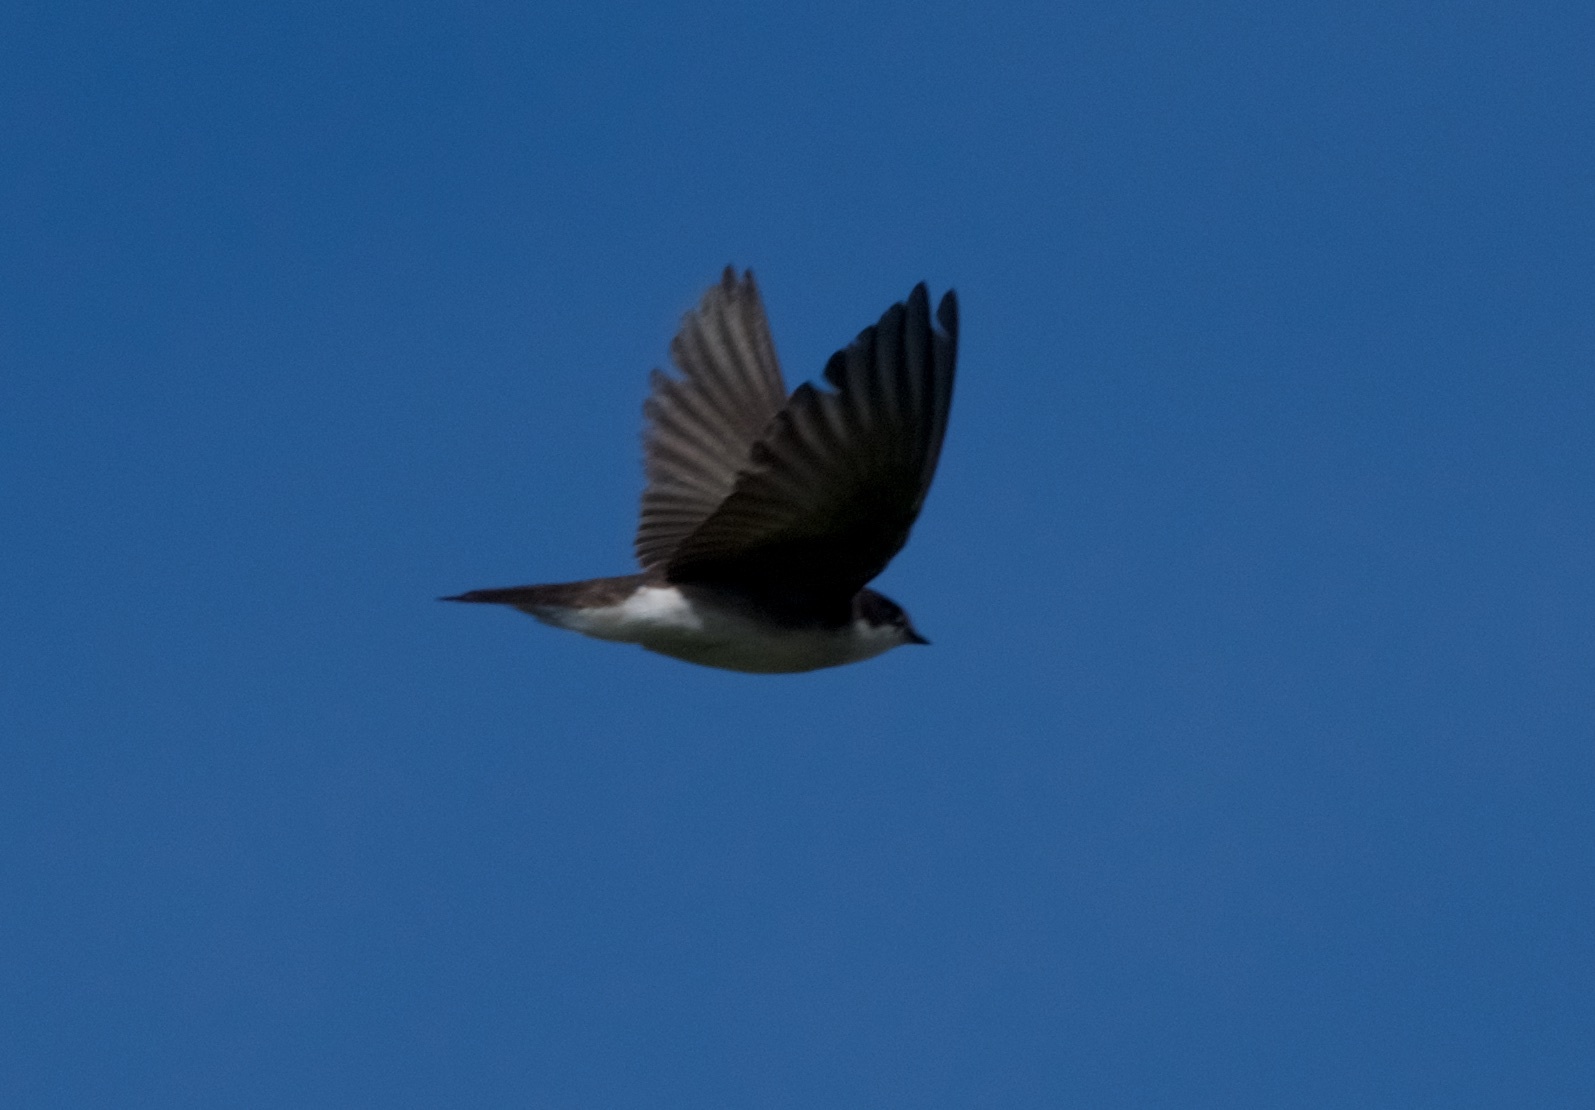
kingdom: Animalia
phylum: Chordata
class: Aves
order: Passeriformes
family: Hirundinidae
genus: Tachycineta
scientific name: Tachycineta bicolor
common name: Tree swallow
